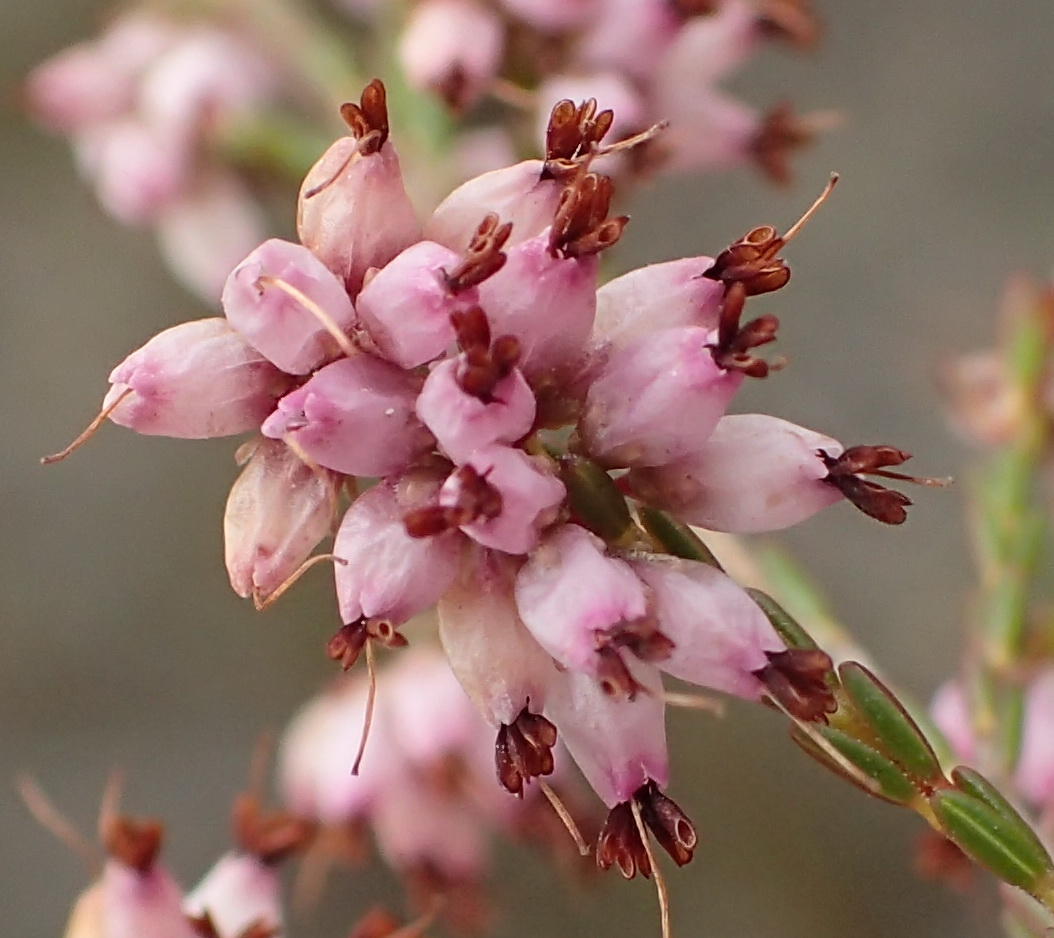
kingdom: Plantae
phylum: Tracheophyta
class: Magnoliopsida
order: Ericales
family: Ericaceae
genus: Erica
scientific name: Erica rosacea
